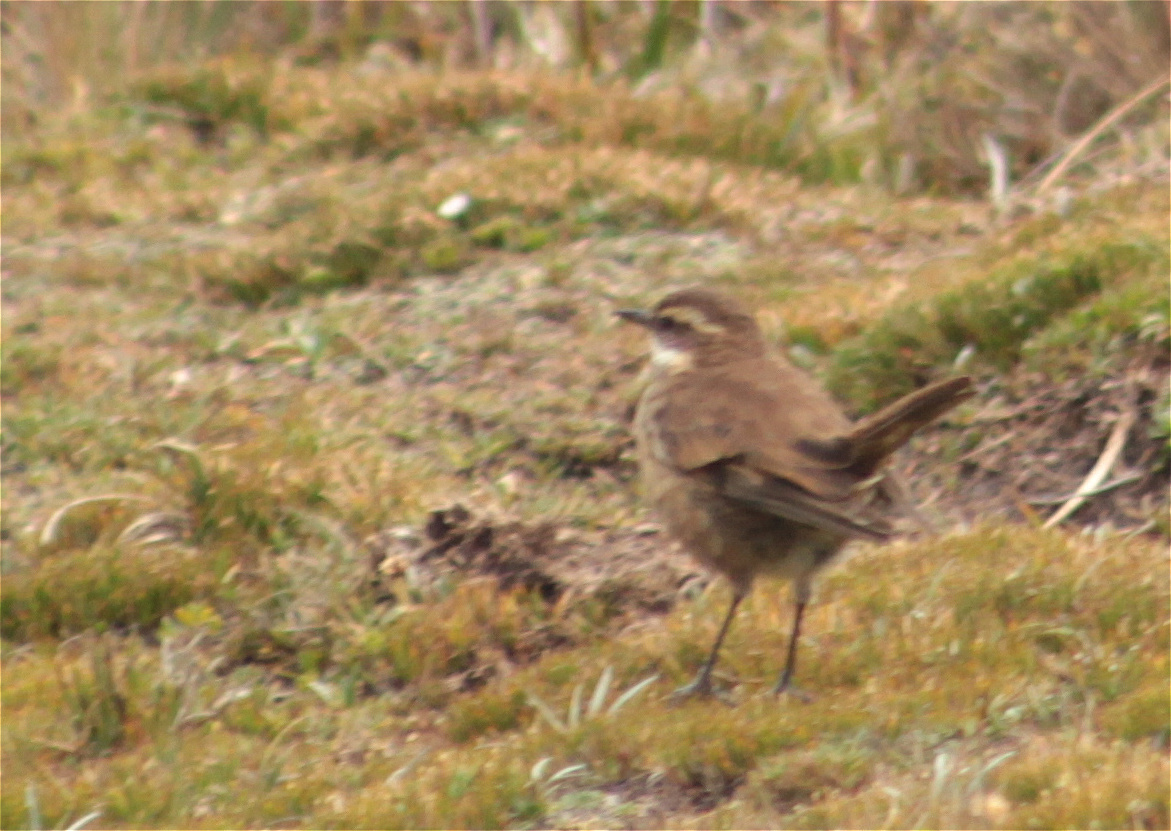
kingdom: Animalia
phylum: Chordata
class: Aves
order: Passeriformes
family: Furnariidae
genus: Cinclodes
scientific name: Cinclodes albidiventris
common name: Chestnut-winged cinclodes
